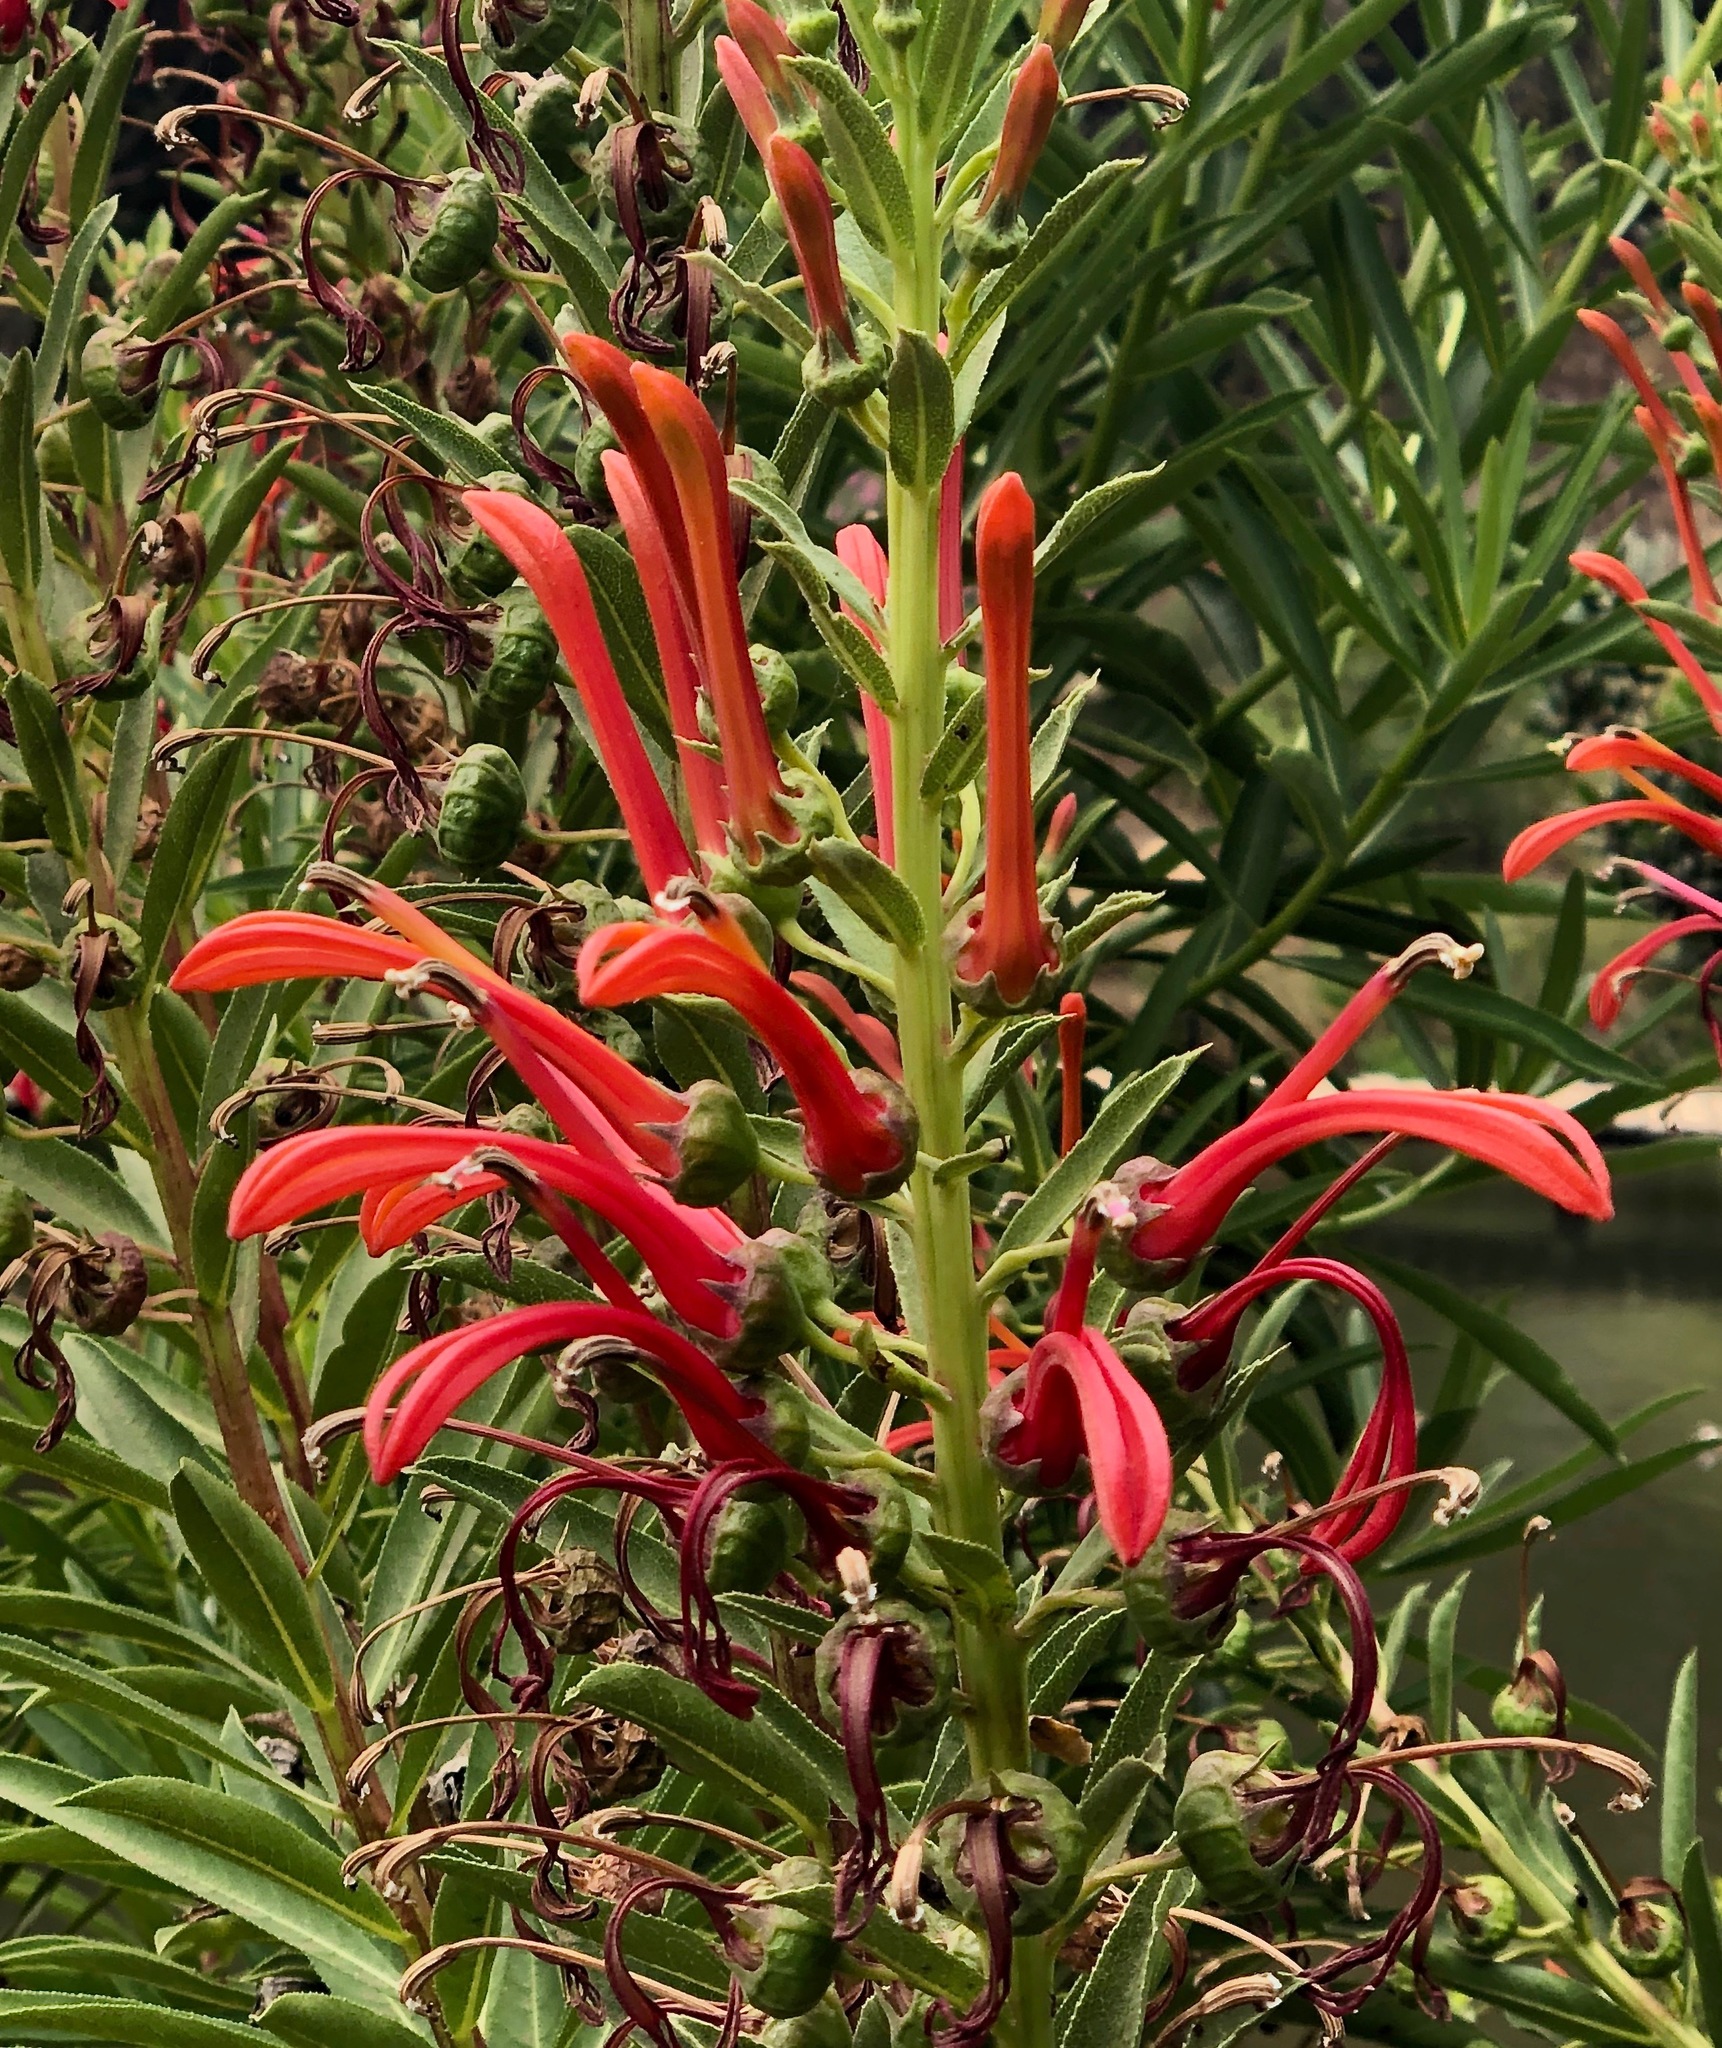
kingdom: Plantae
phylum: Tracheophyta
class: Magnoliopsida
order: Asterales
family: Campanulaceae
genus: Lobelia
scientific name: Lobelia excelsa
